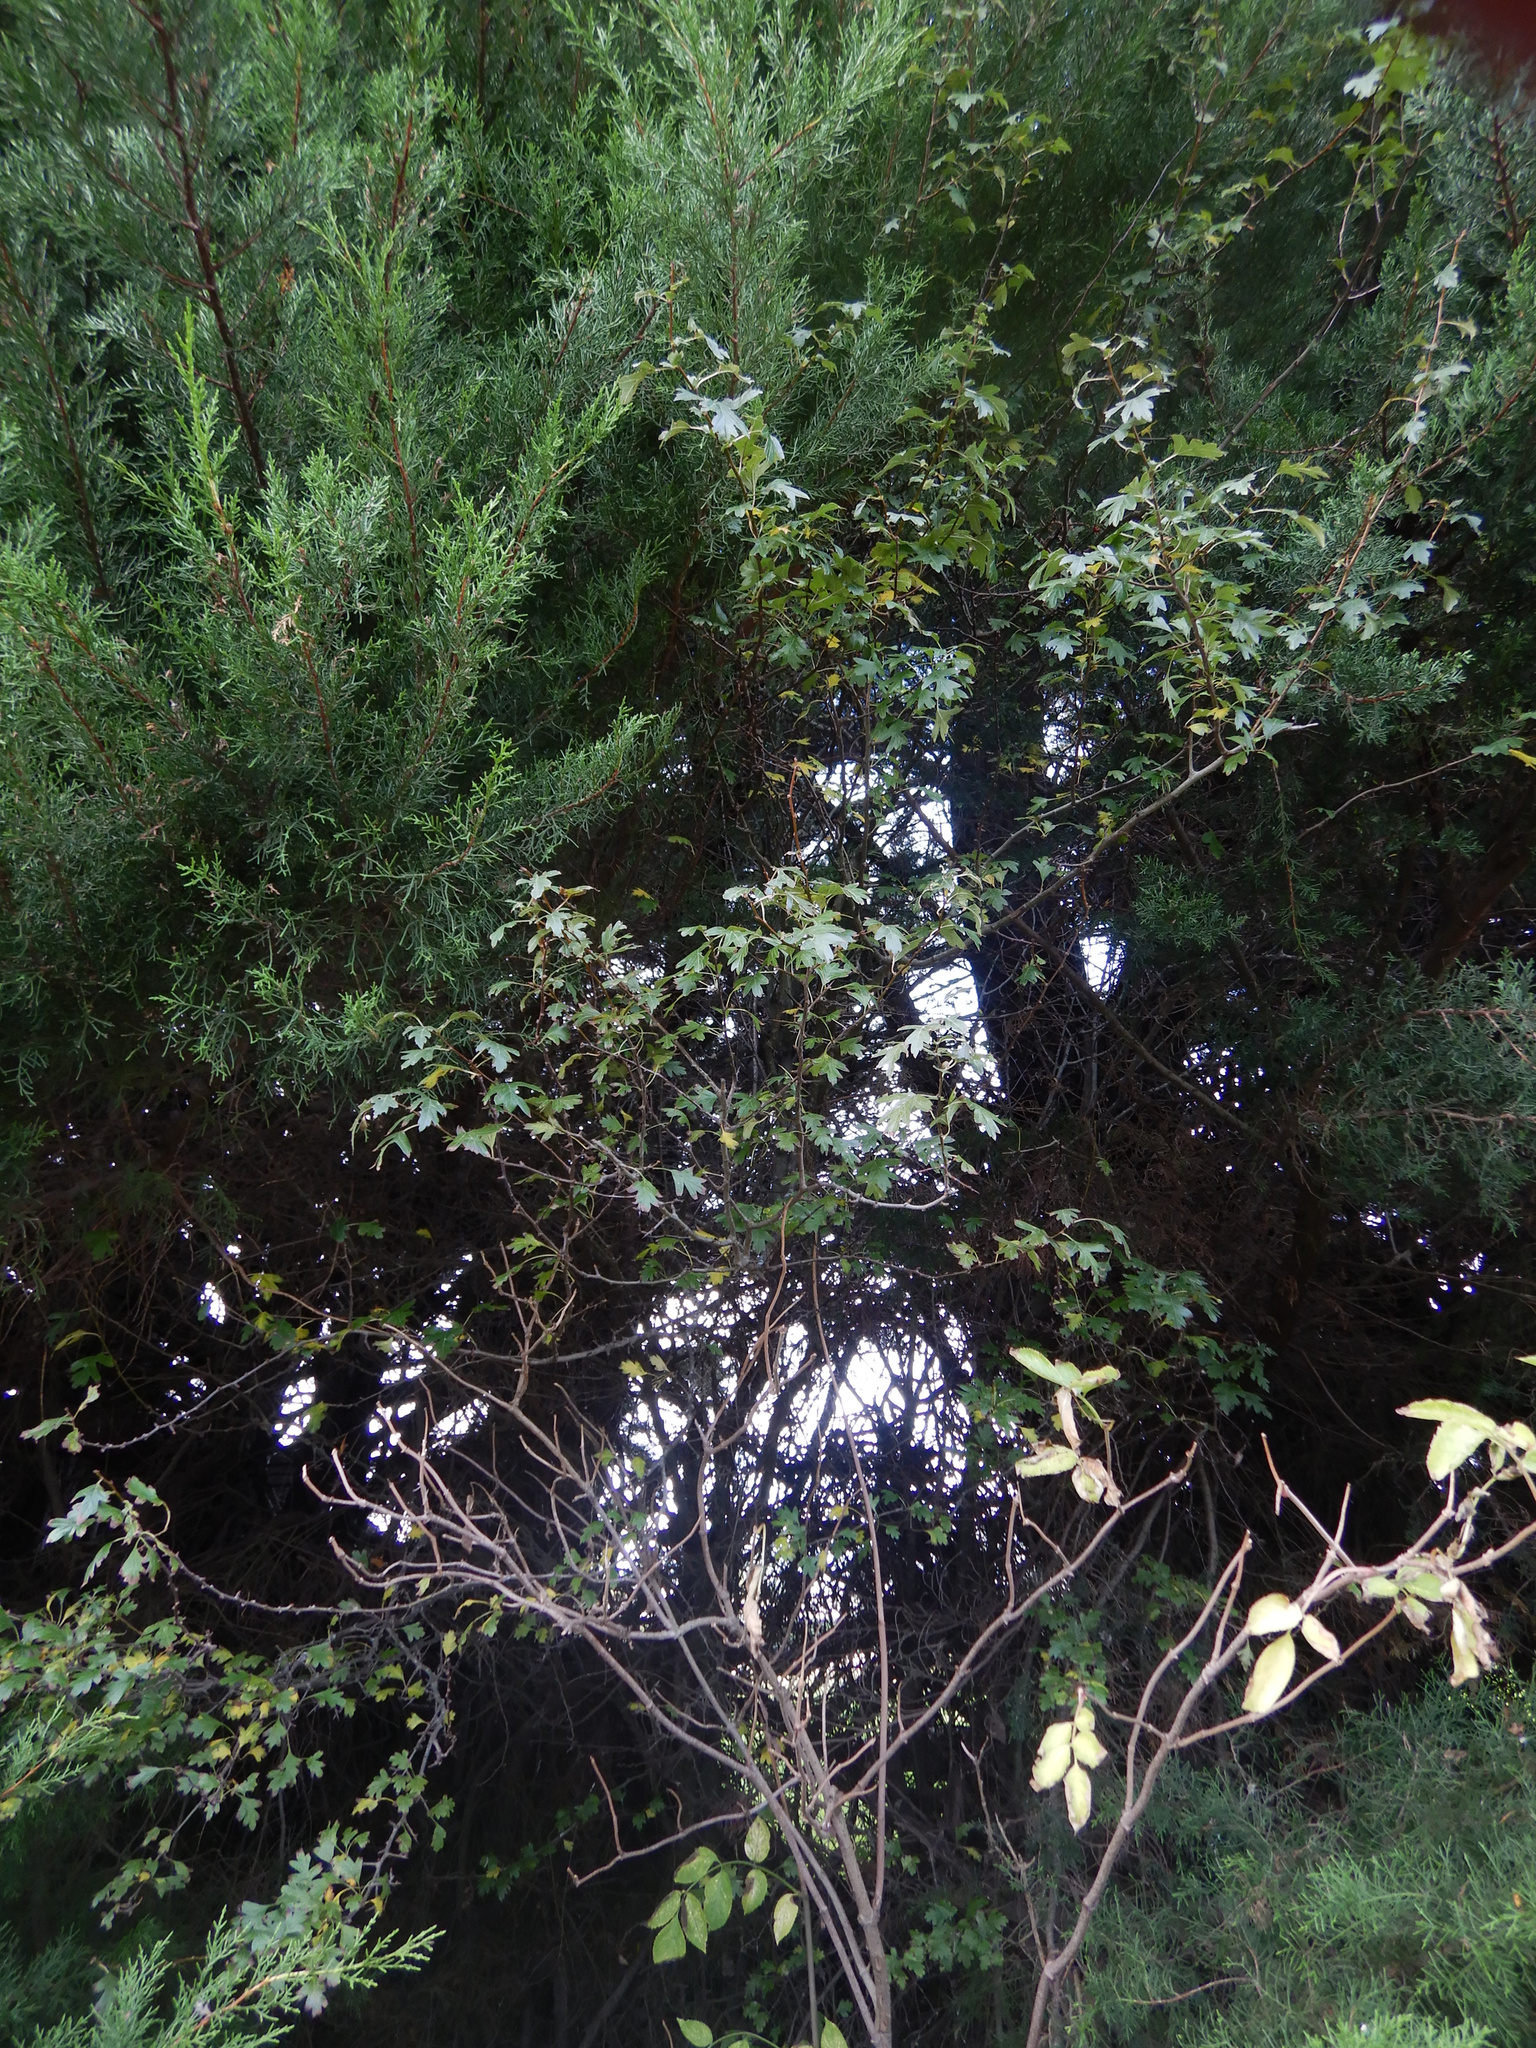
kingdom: Plantae
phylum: Tracheophyta
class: Magnoliopsida
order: Rosales
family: Rosaceae
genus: Crataegus
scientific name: Crataegus monogyna
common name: Hawthorn
